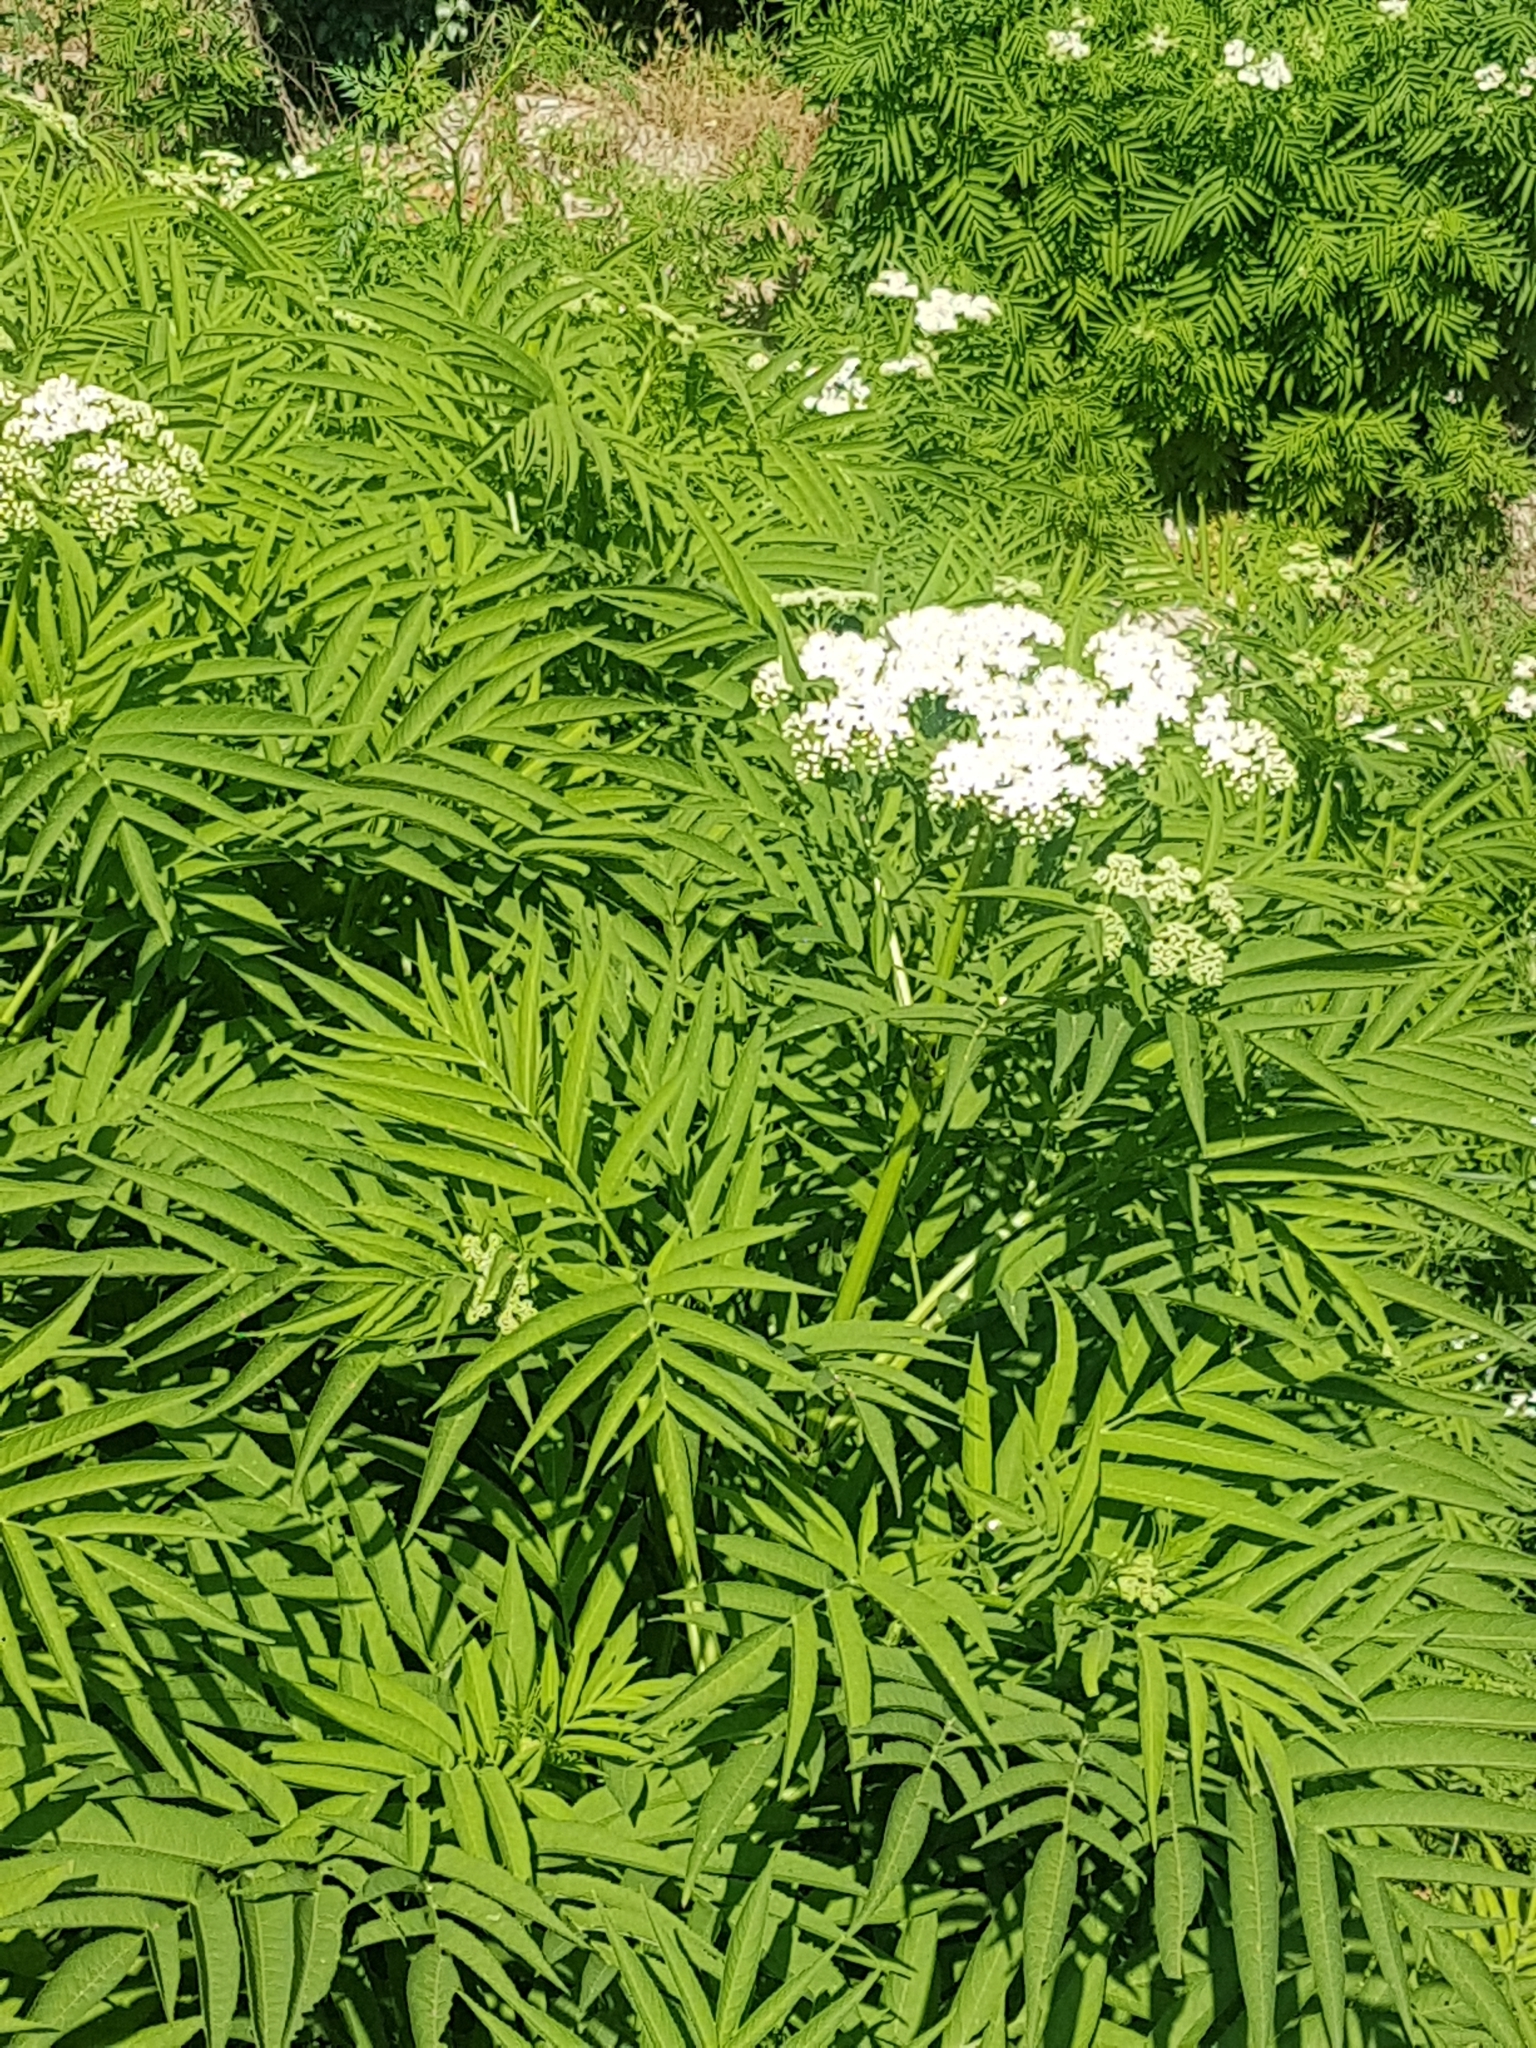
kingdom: Plantae
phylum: Tracheophyta
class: Magnoliopsida
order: Dipsacales
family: Viburnaceae
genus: Sambucus
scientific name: Sambucus ebulus
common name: Dwarf elder
